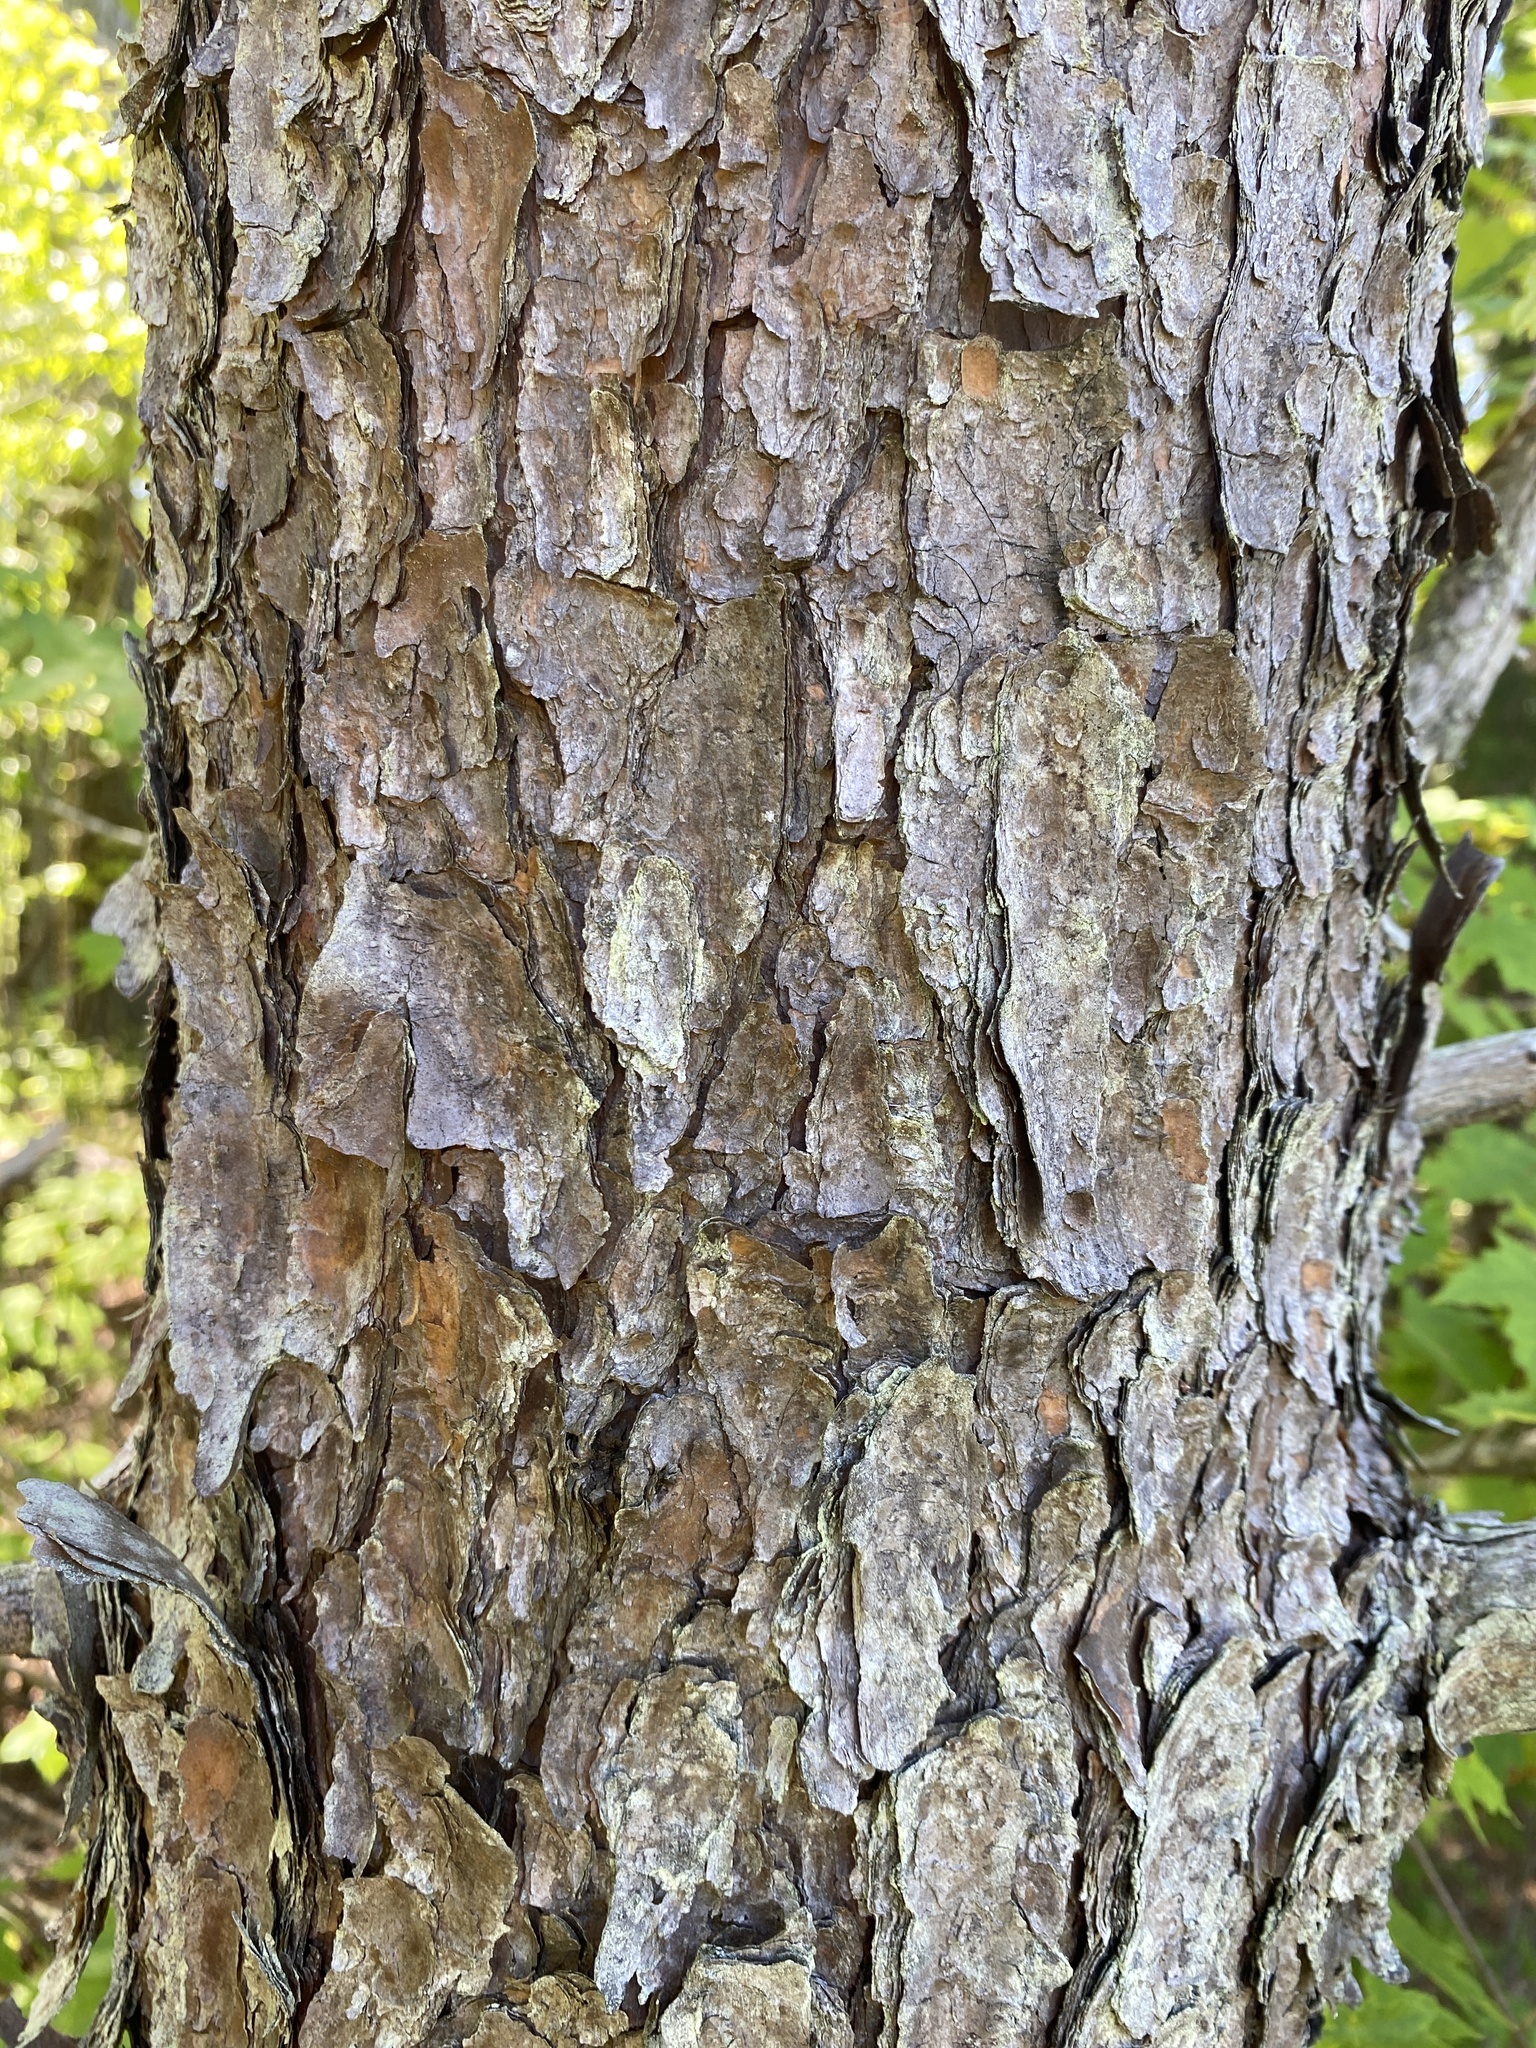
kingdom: Plantae
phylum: Tracheophyta
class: Pinopsida
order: Pinales
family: Pinaceae
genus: Pinus
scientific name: Pinus virginiana
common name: Scrub pine
